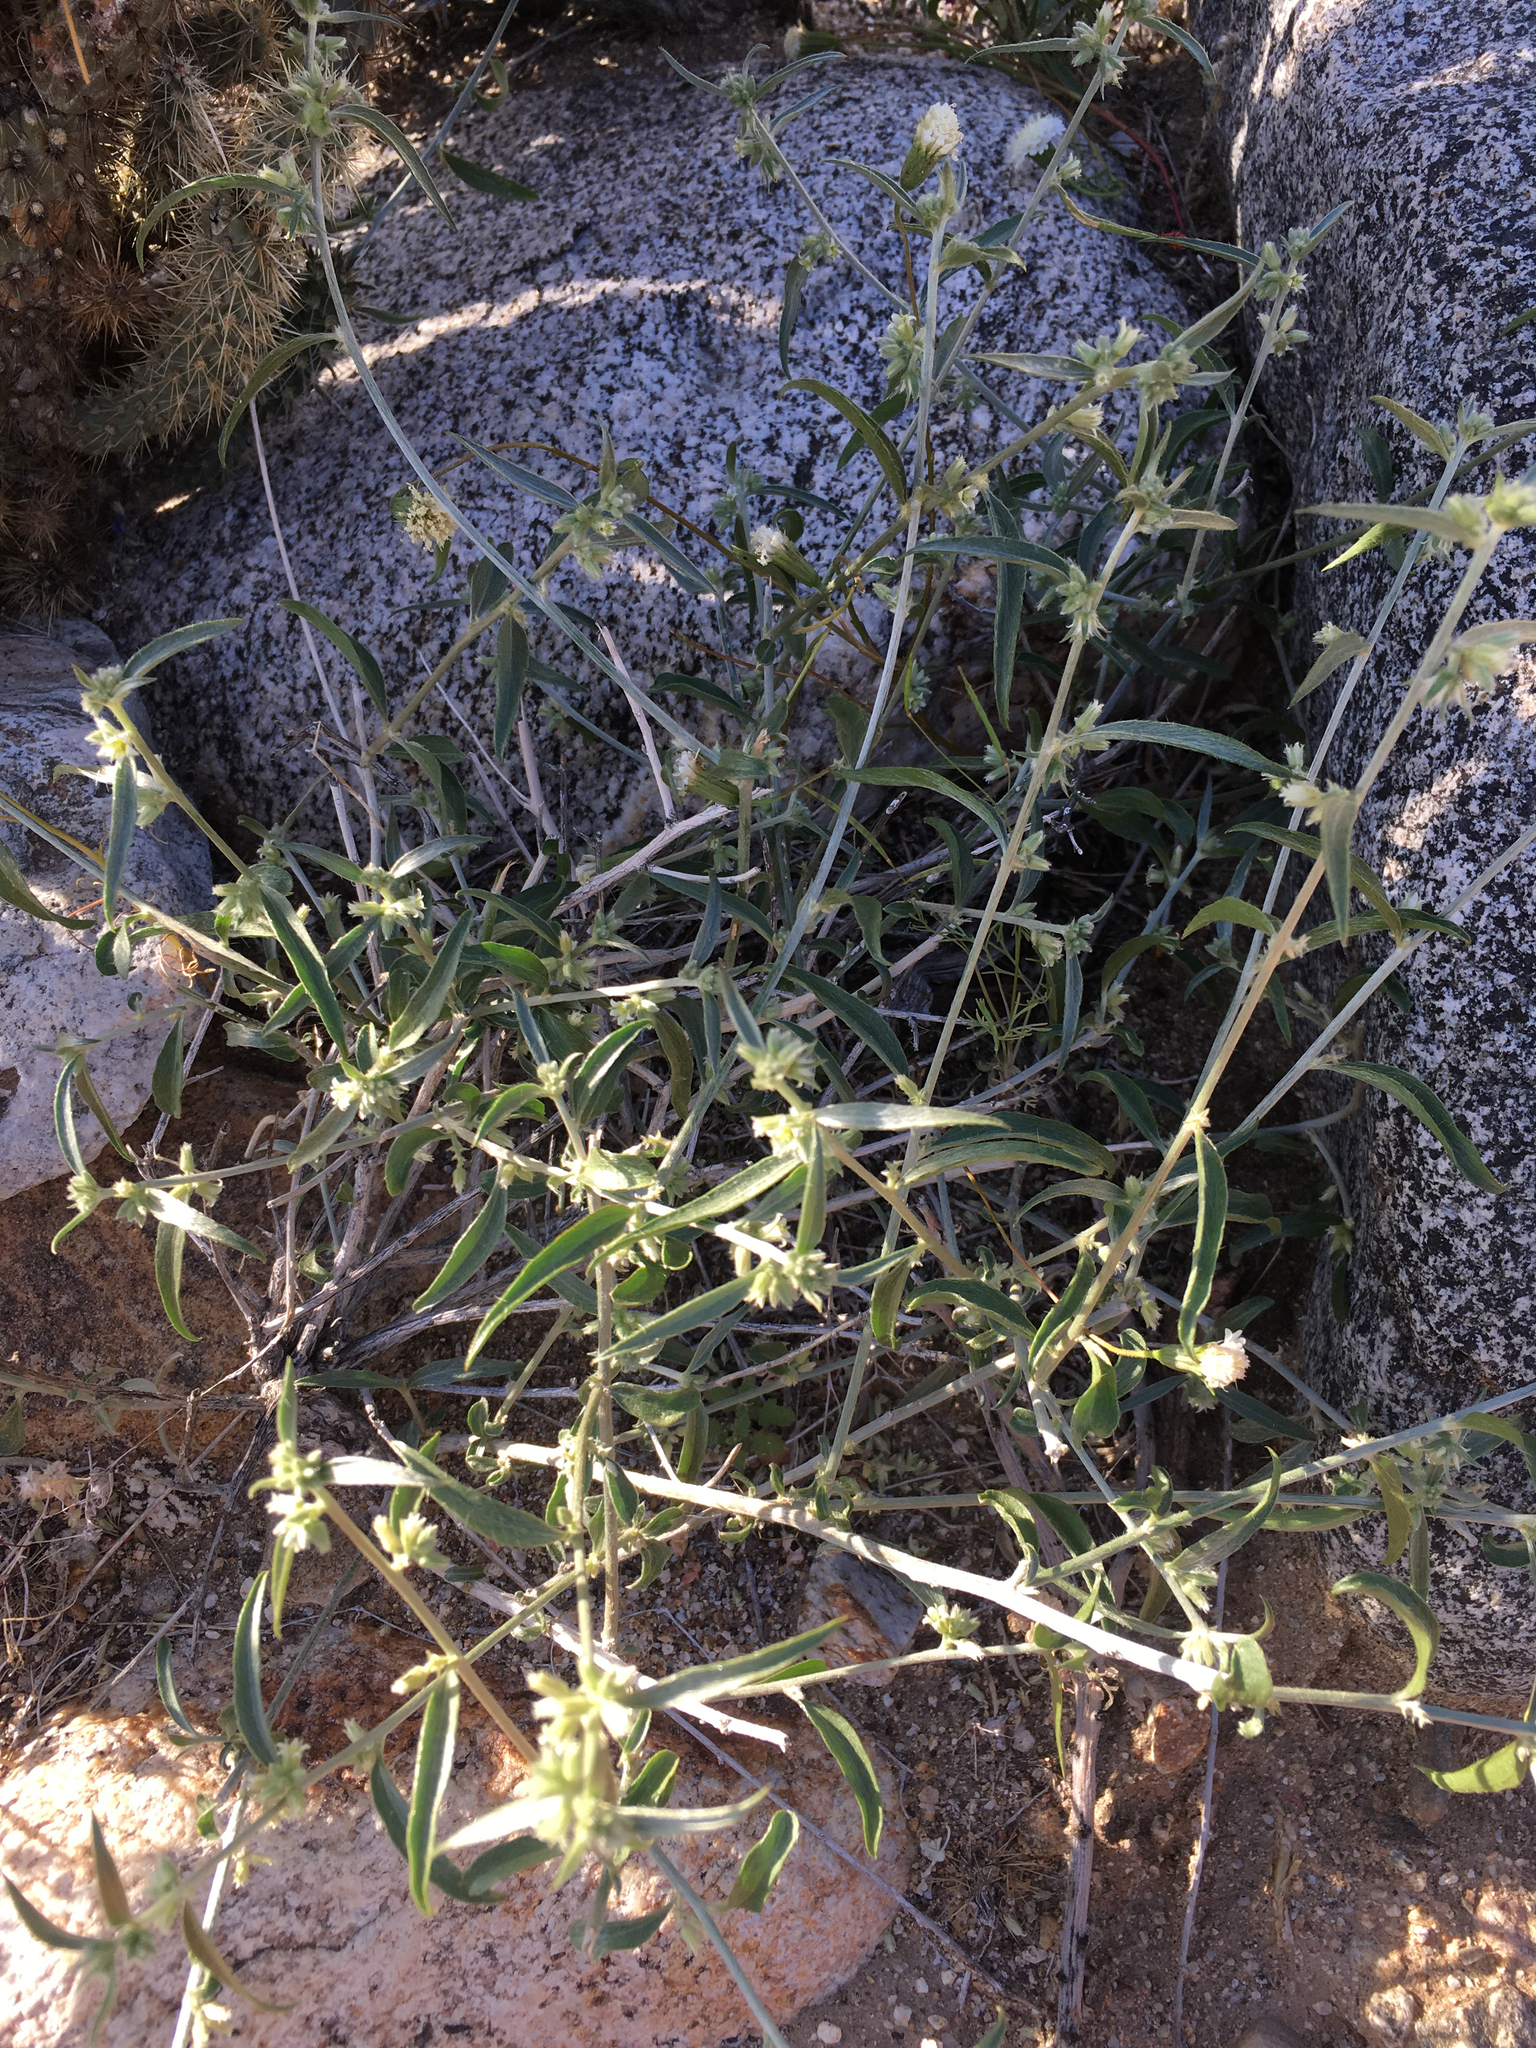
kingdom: Plantae
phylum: Tracheophyta
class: Magnoliopsida
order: Malpighiales
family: Euphorbiaceae
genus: Ditaxis
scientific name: Ditaxis lanceolata
